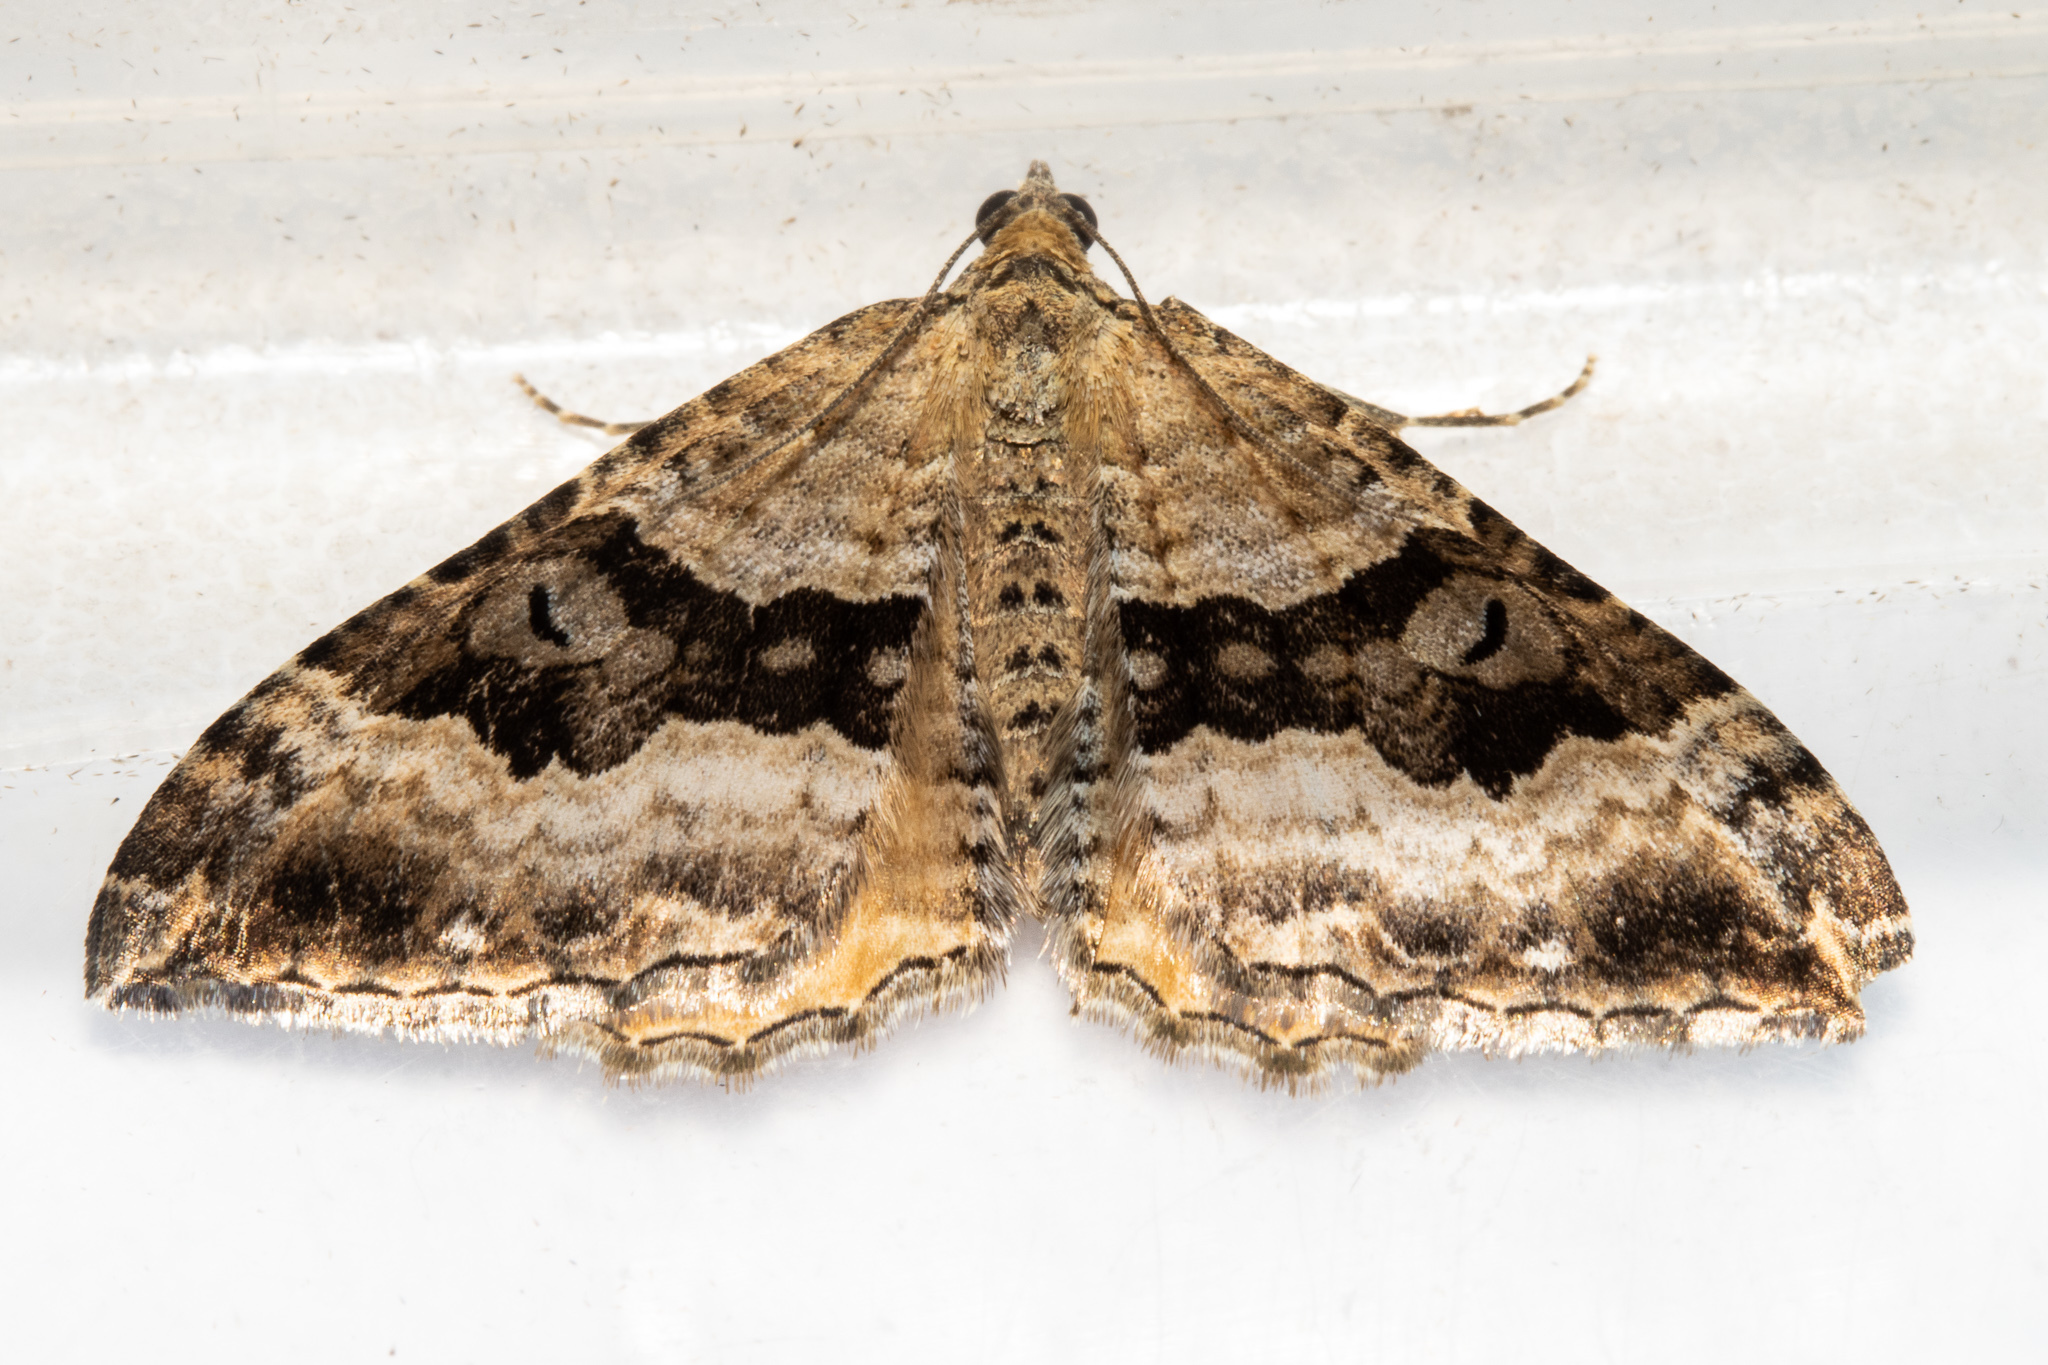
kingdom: Animalia
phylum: Arthropoda
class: Insecta
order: Lepidoptera
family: Geometridae
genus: Hydriomena
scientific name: Hydriomena deltoidata
